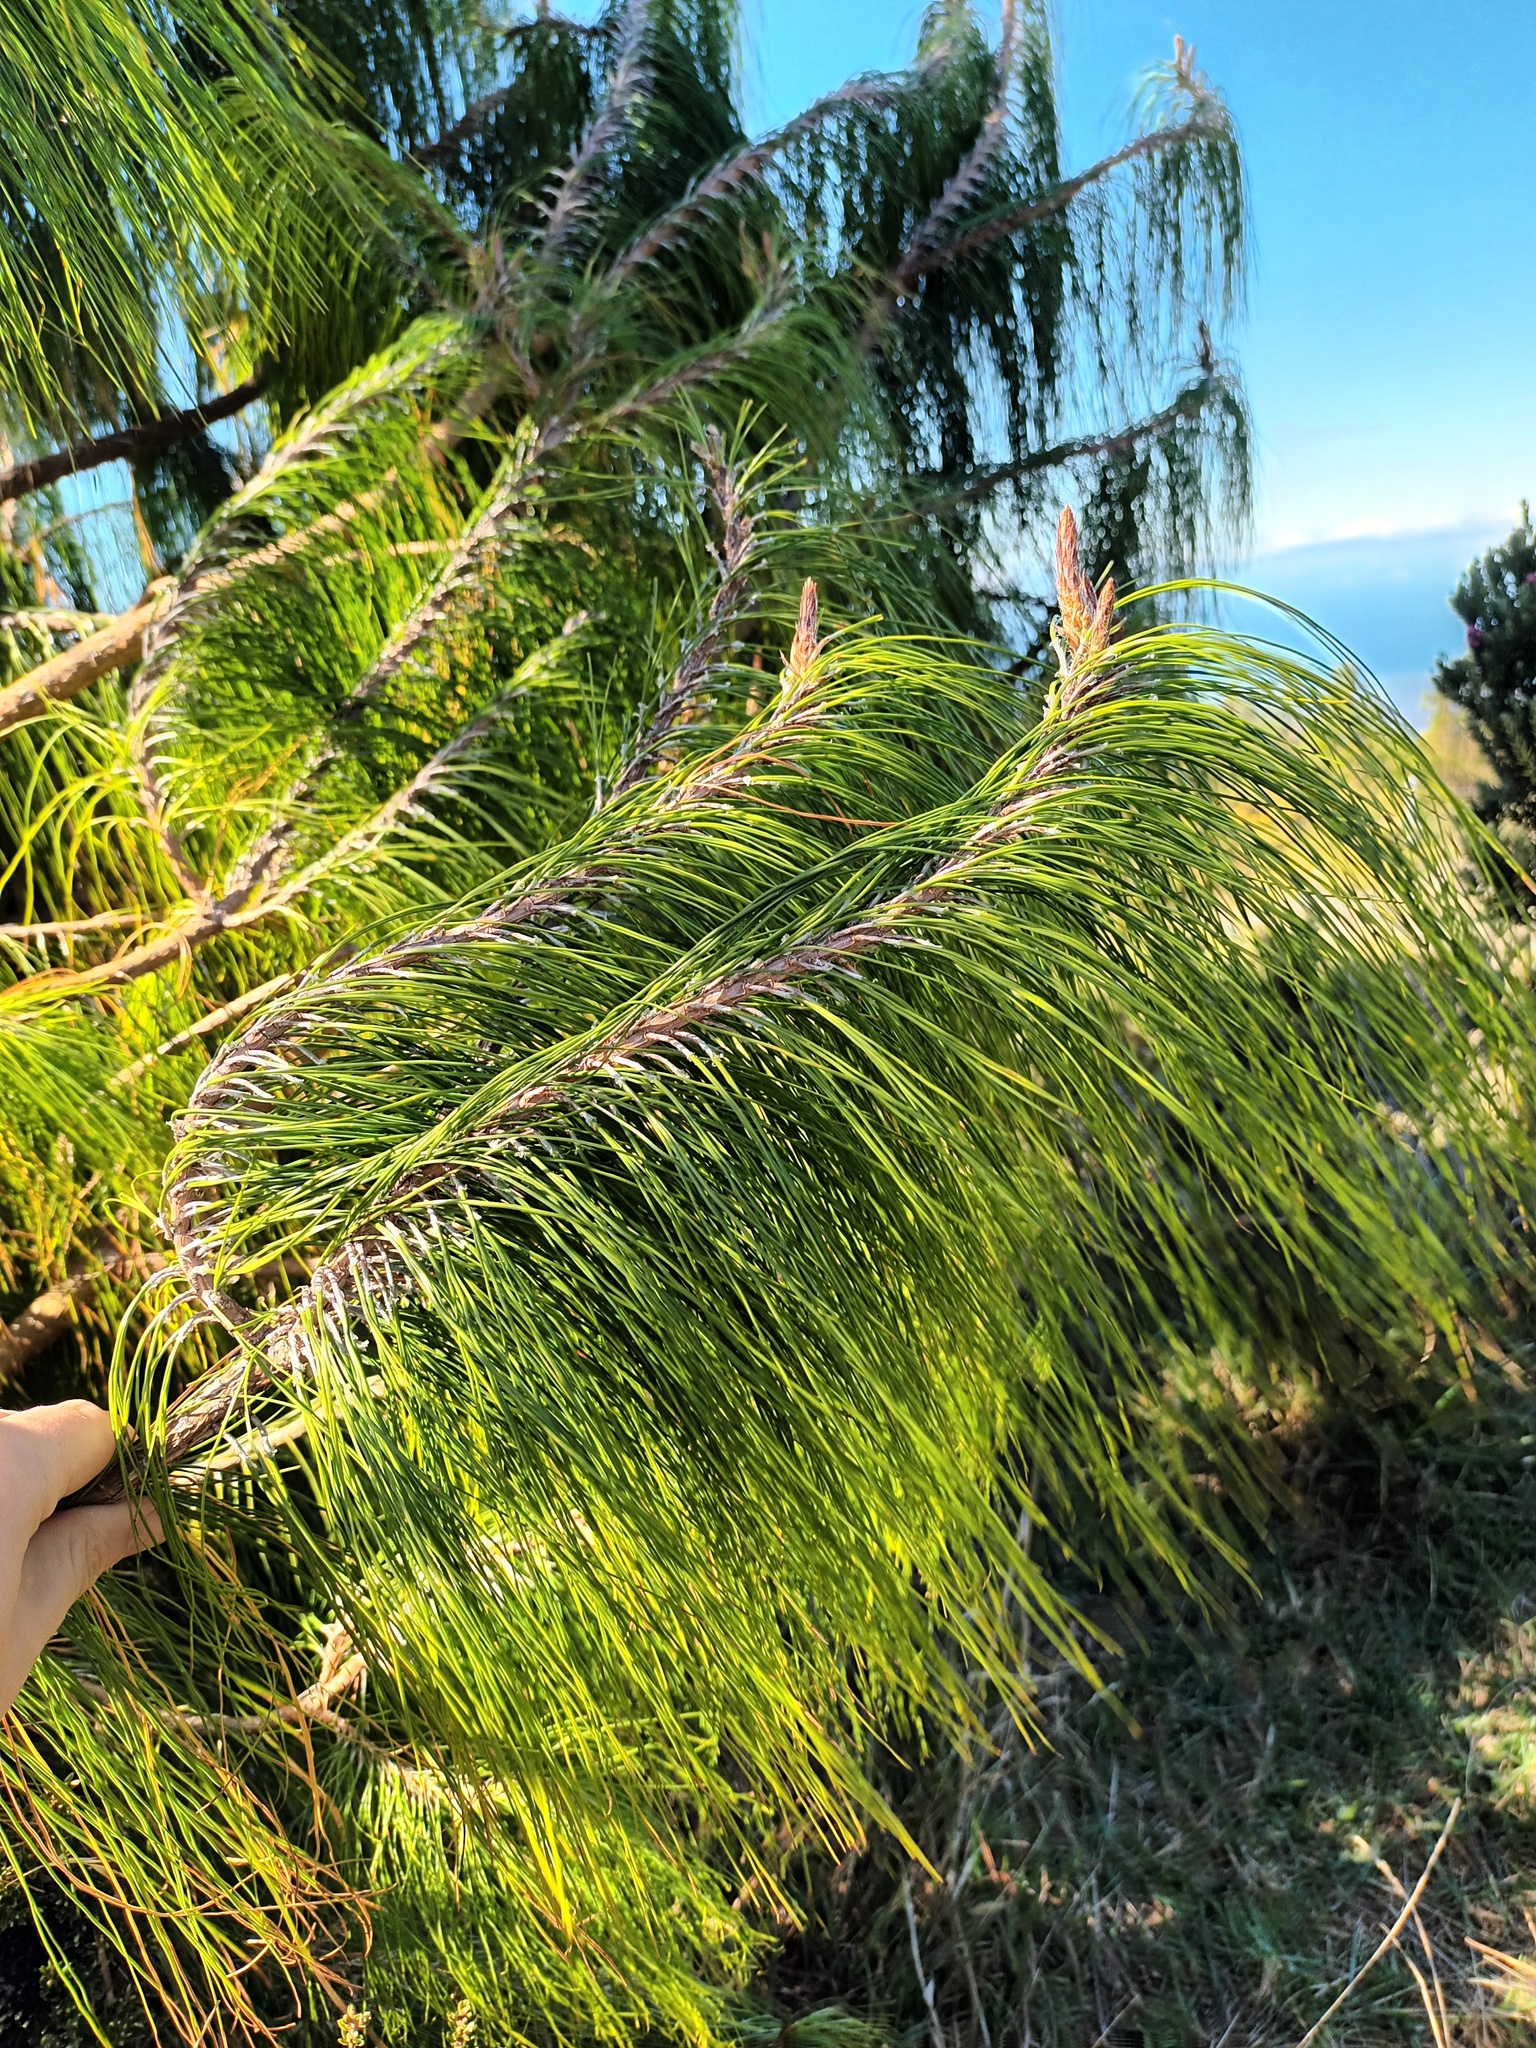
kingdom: Plantae
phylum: Tracheophyta
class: Magnoliopsida
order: Fagales
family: Casuarinaceae
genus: Casuarina
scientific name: Casuarina equisetifolia
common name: Beach sheoak
